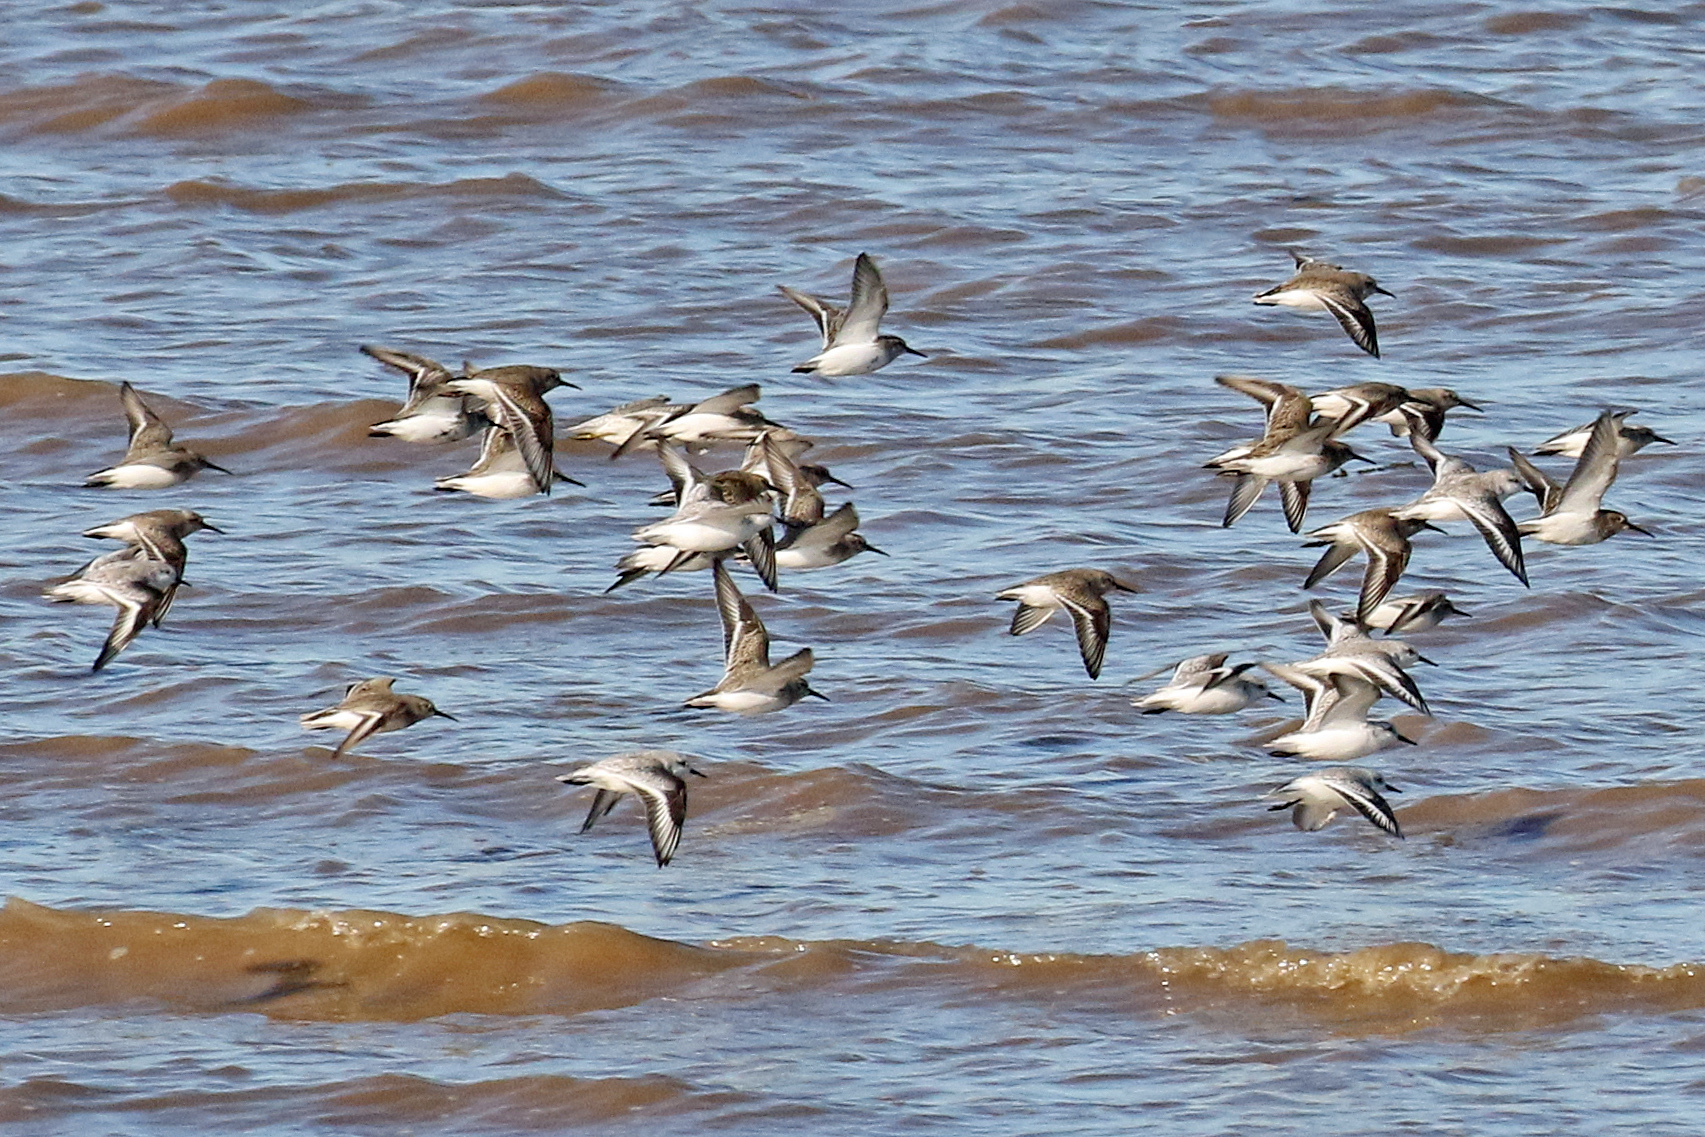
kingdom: Animalia
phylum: Chordata
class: Aves
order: Charadriiformes
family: Scolopacidae
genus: Calidris
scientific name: Calidris alpina
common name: Dunlin
